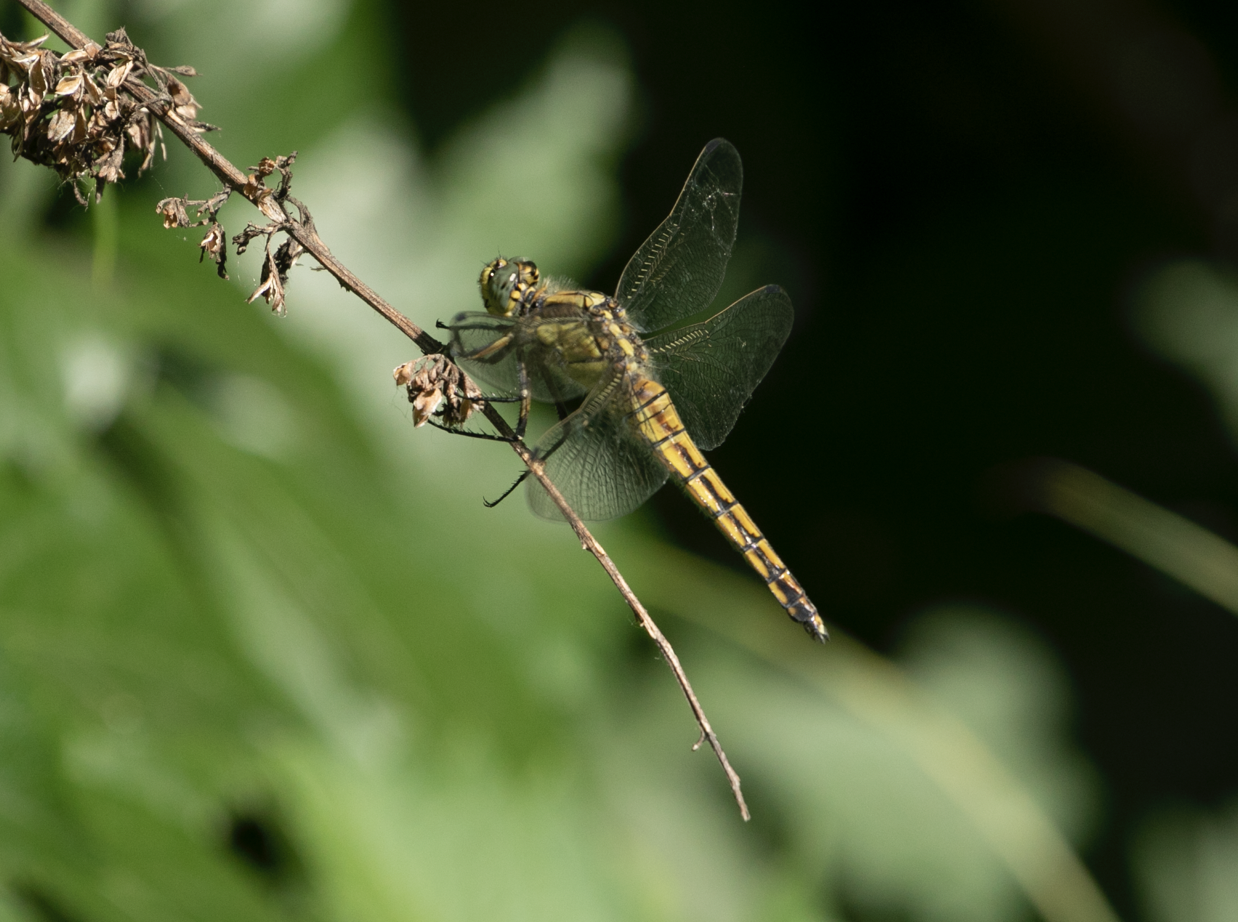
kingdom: Animalia
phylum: Arthropoda
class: Insecta
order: Odonata
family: Libellulidae
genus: Orthetrum
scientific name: Orthetrum cancellatum
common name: Black-tailed skimmer
